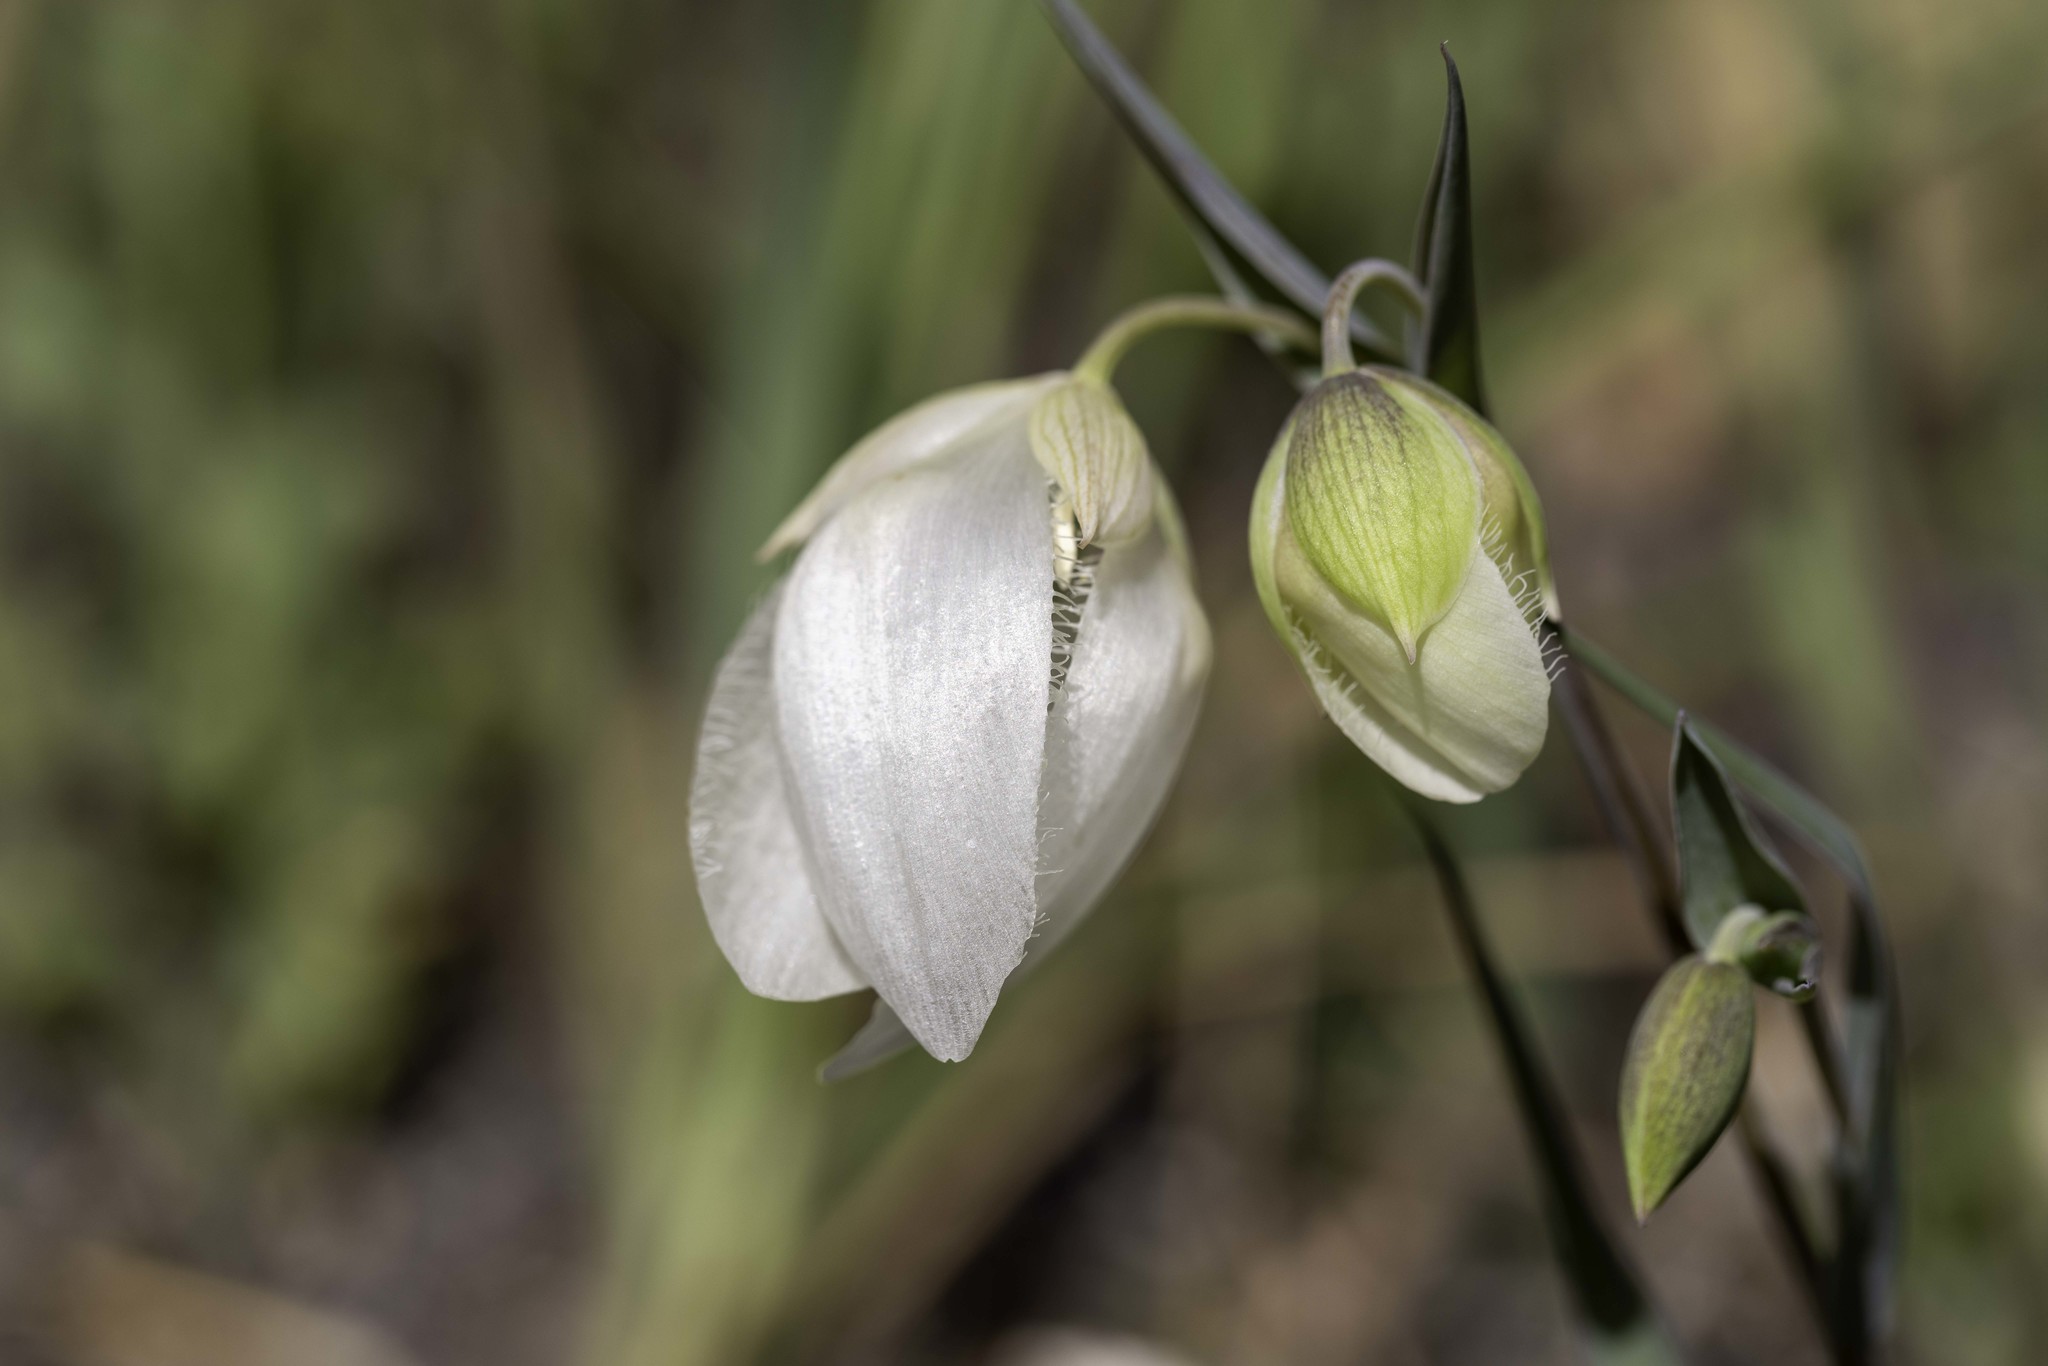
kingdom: Plantae
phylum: Tracheophyta
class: Liliopsida
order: Liliales
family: Liliaceae
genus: Calochortus
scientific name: Calochortus albus
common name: Fairy-lantern
